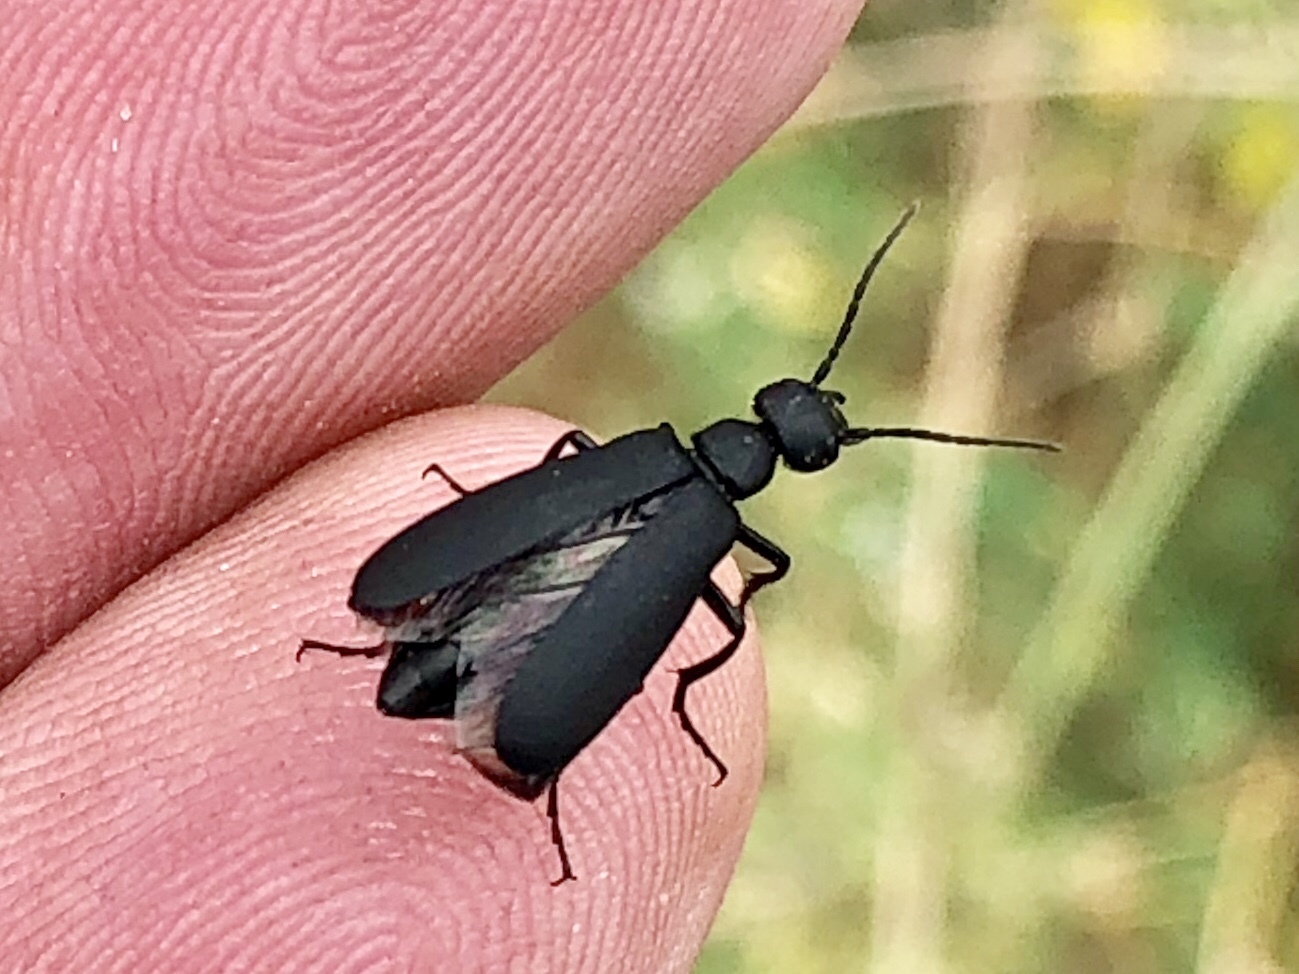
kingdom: Animalia
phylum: Arthropoda
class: Insecta
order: Coleoptera
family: Meloidae
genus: Epicauta
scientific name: Epicauta pensylvanica
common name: Black blister beetle
